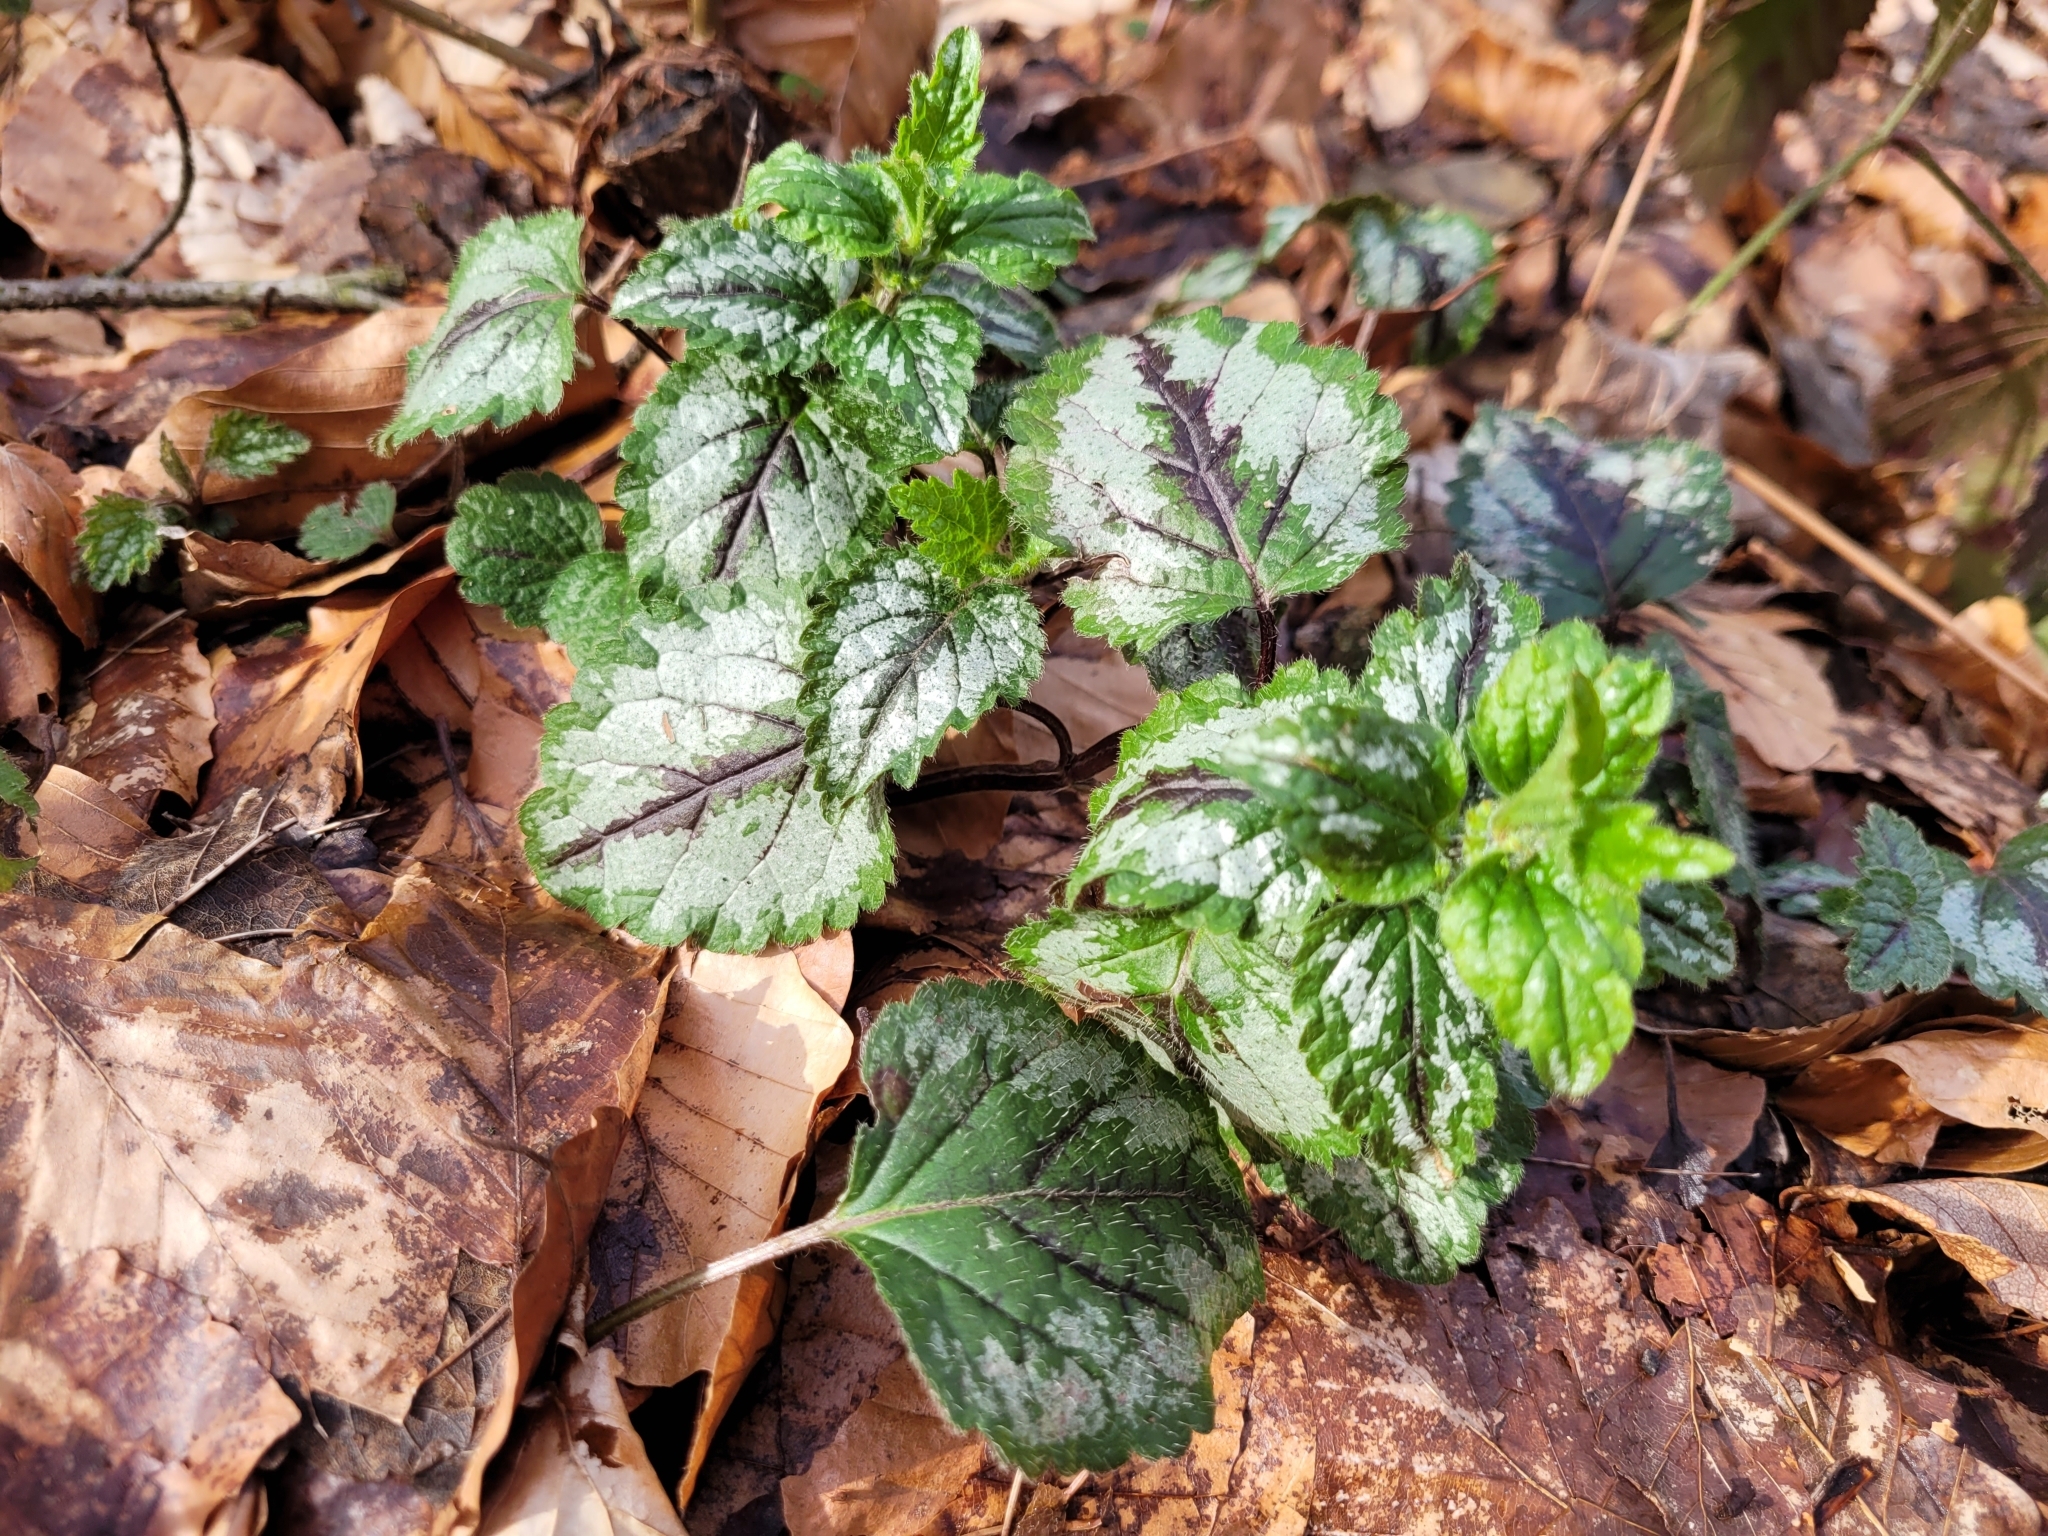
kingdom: Plantae
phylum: Tracheophyta
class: Magnoliopsida
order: Lamiales
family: Lamiaceae
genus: Lamium
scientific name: Lamium galeobdolon
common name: Yellow archangel
